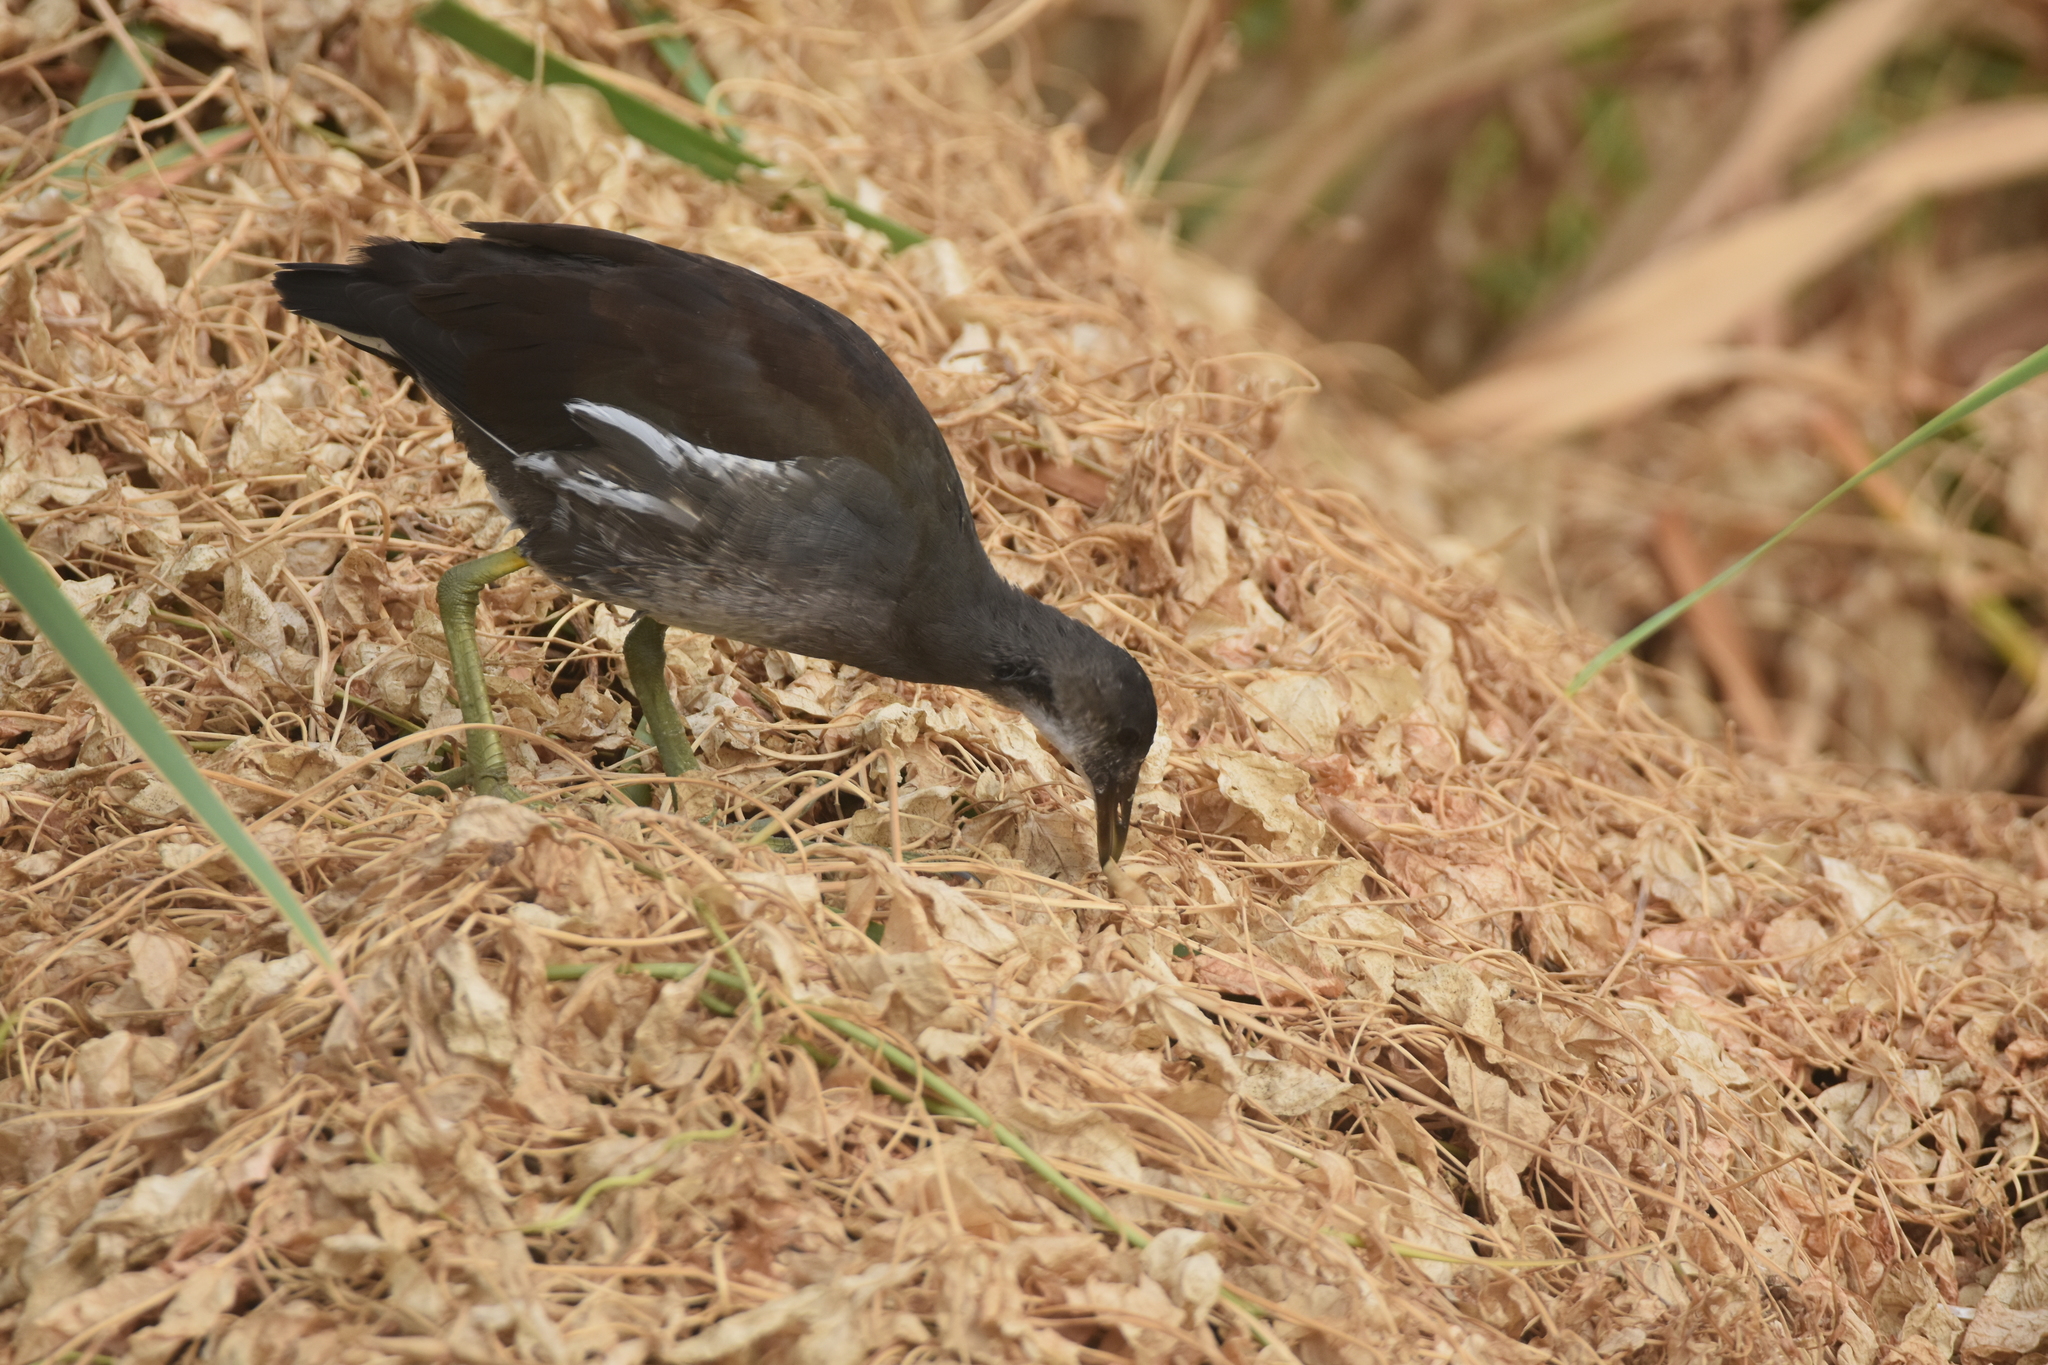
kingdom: Animalia
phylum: Chordata
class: Aves
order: Gruiformes
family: Rallidae
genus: Gallinula
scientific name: Gallinula chloropus
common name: Common moorhen
